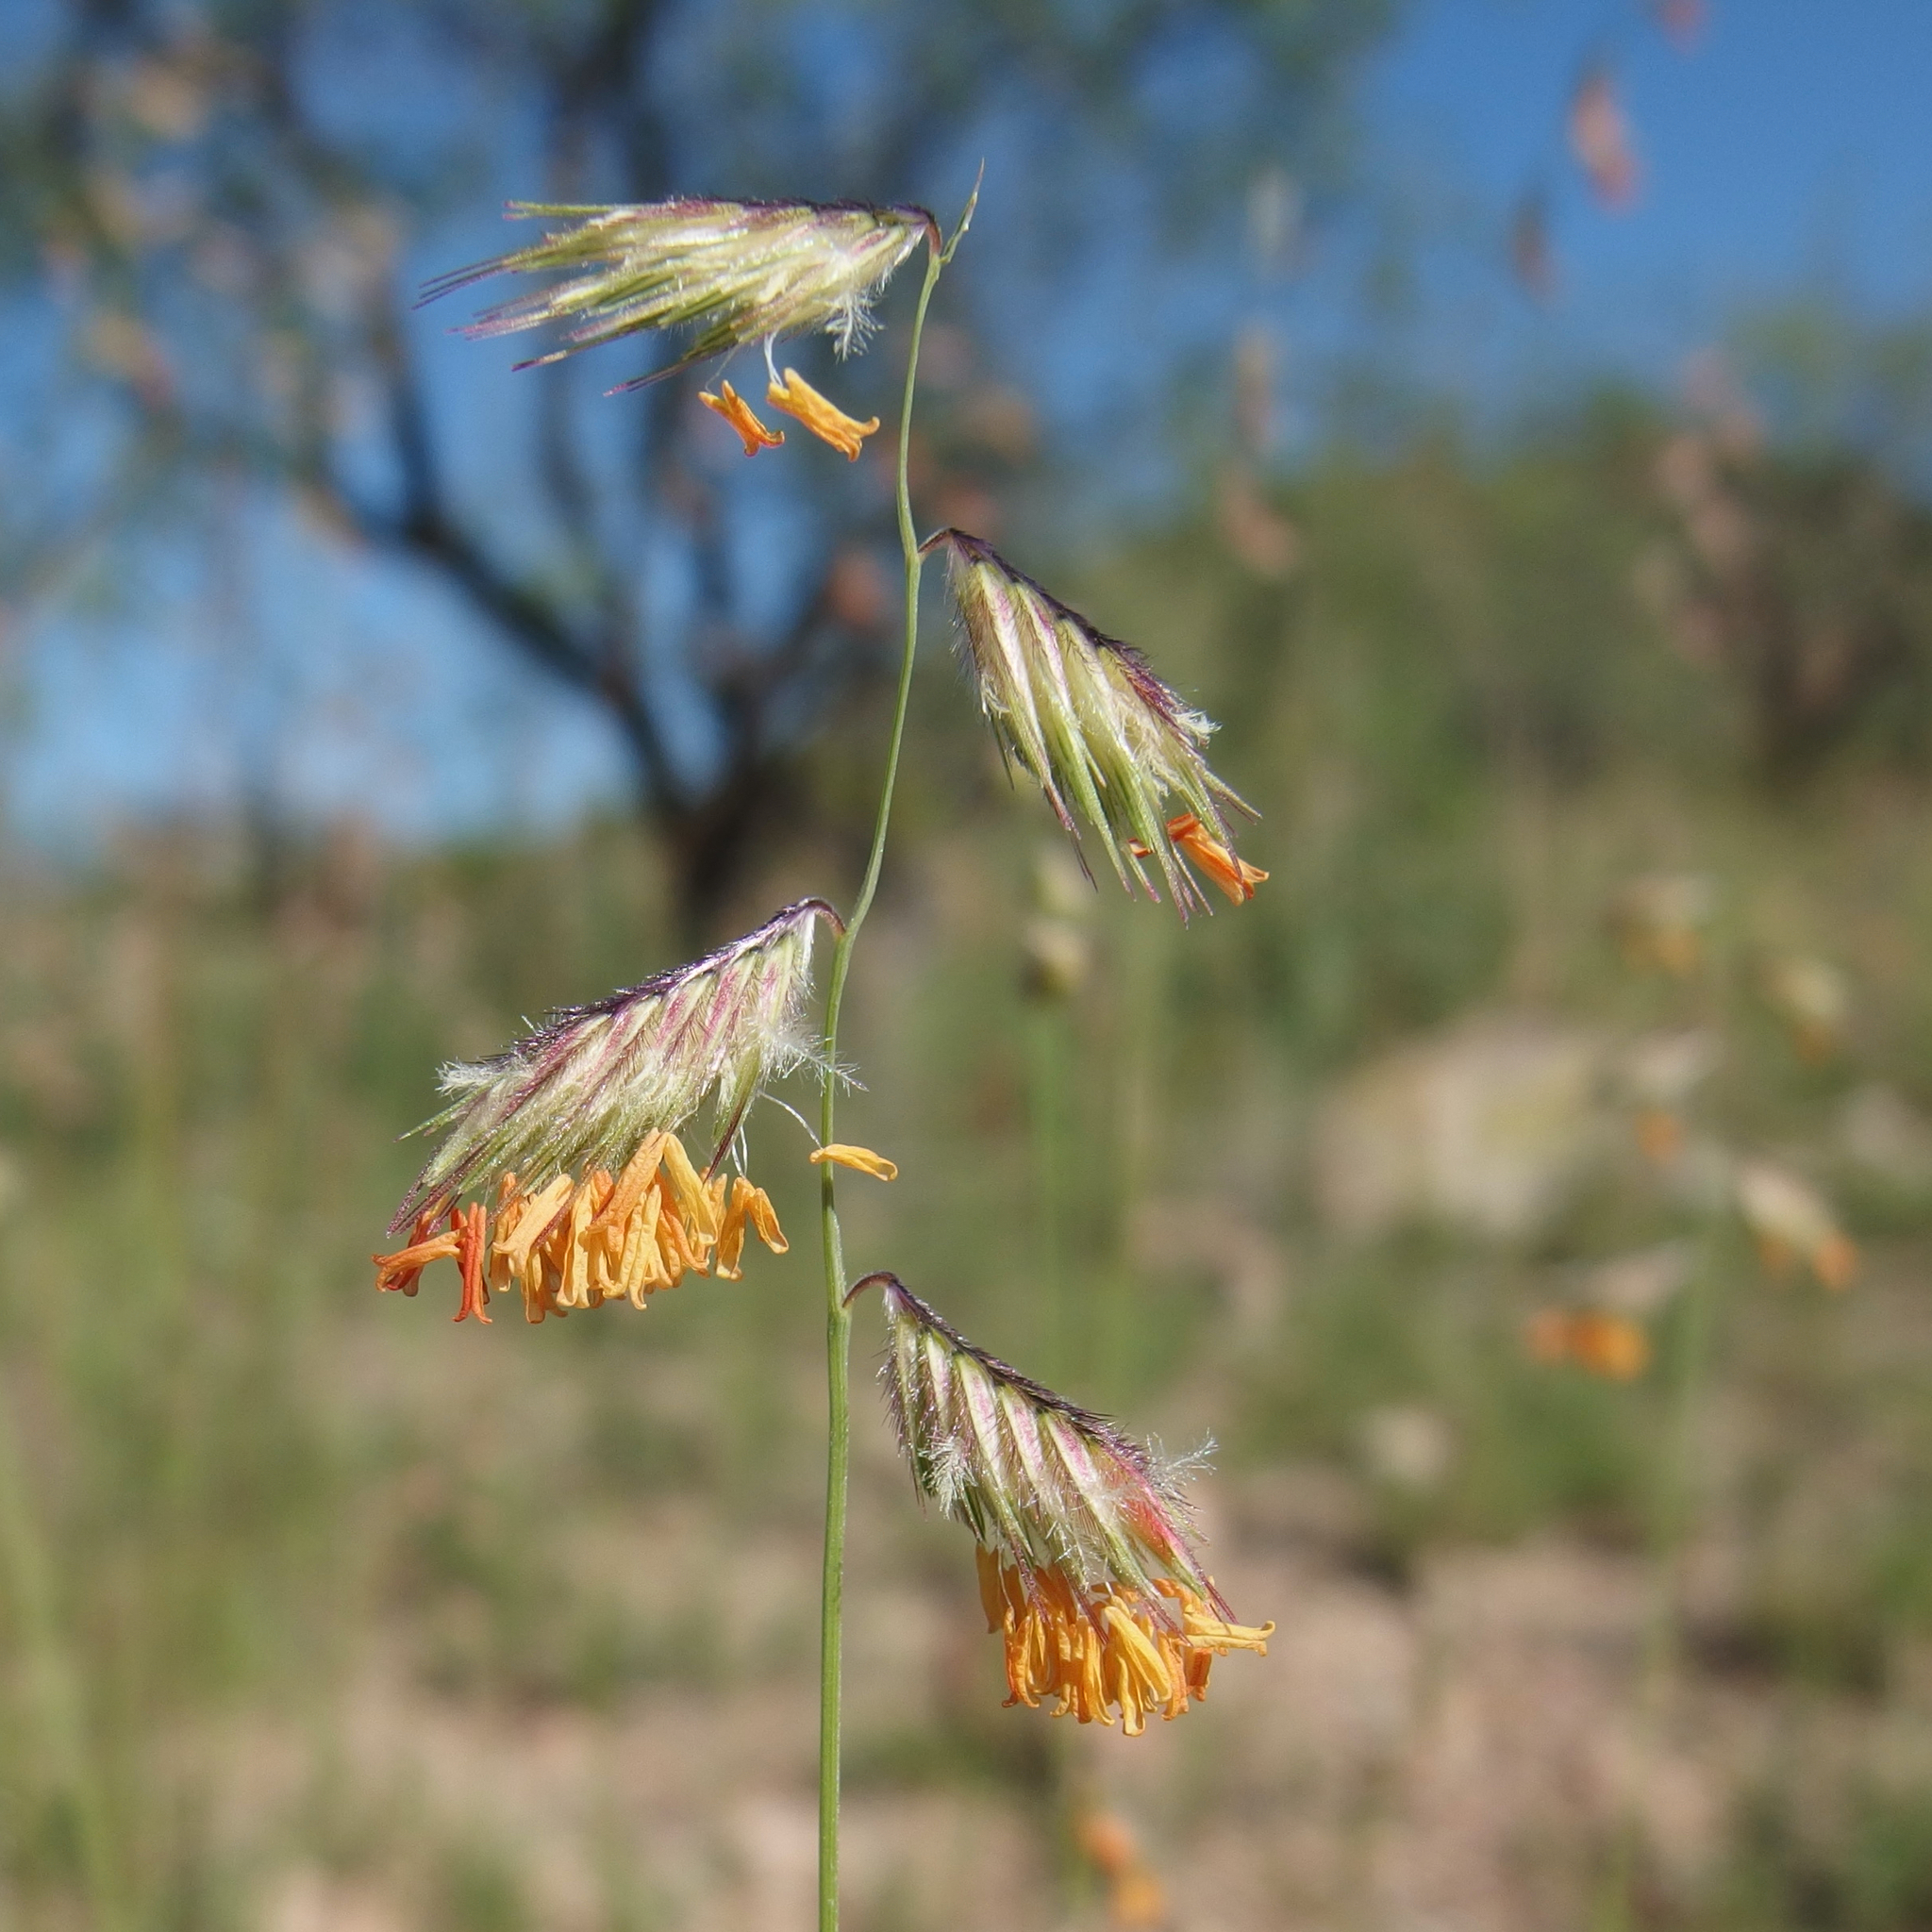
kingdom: Plantae
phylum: Tracheophyta
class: Liliopsida
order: Poales
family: Poaceae
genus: Bouteloua
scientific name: Bouteloua chondrosioides
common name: Sprucetop grama
